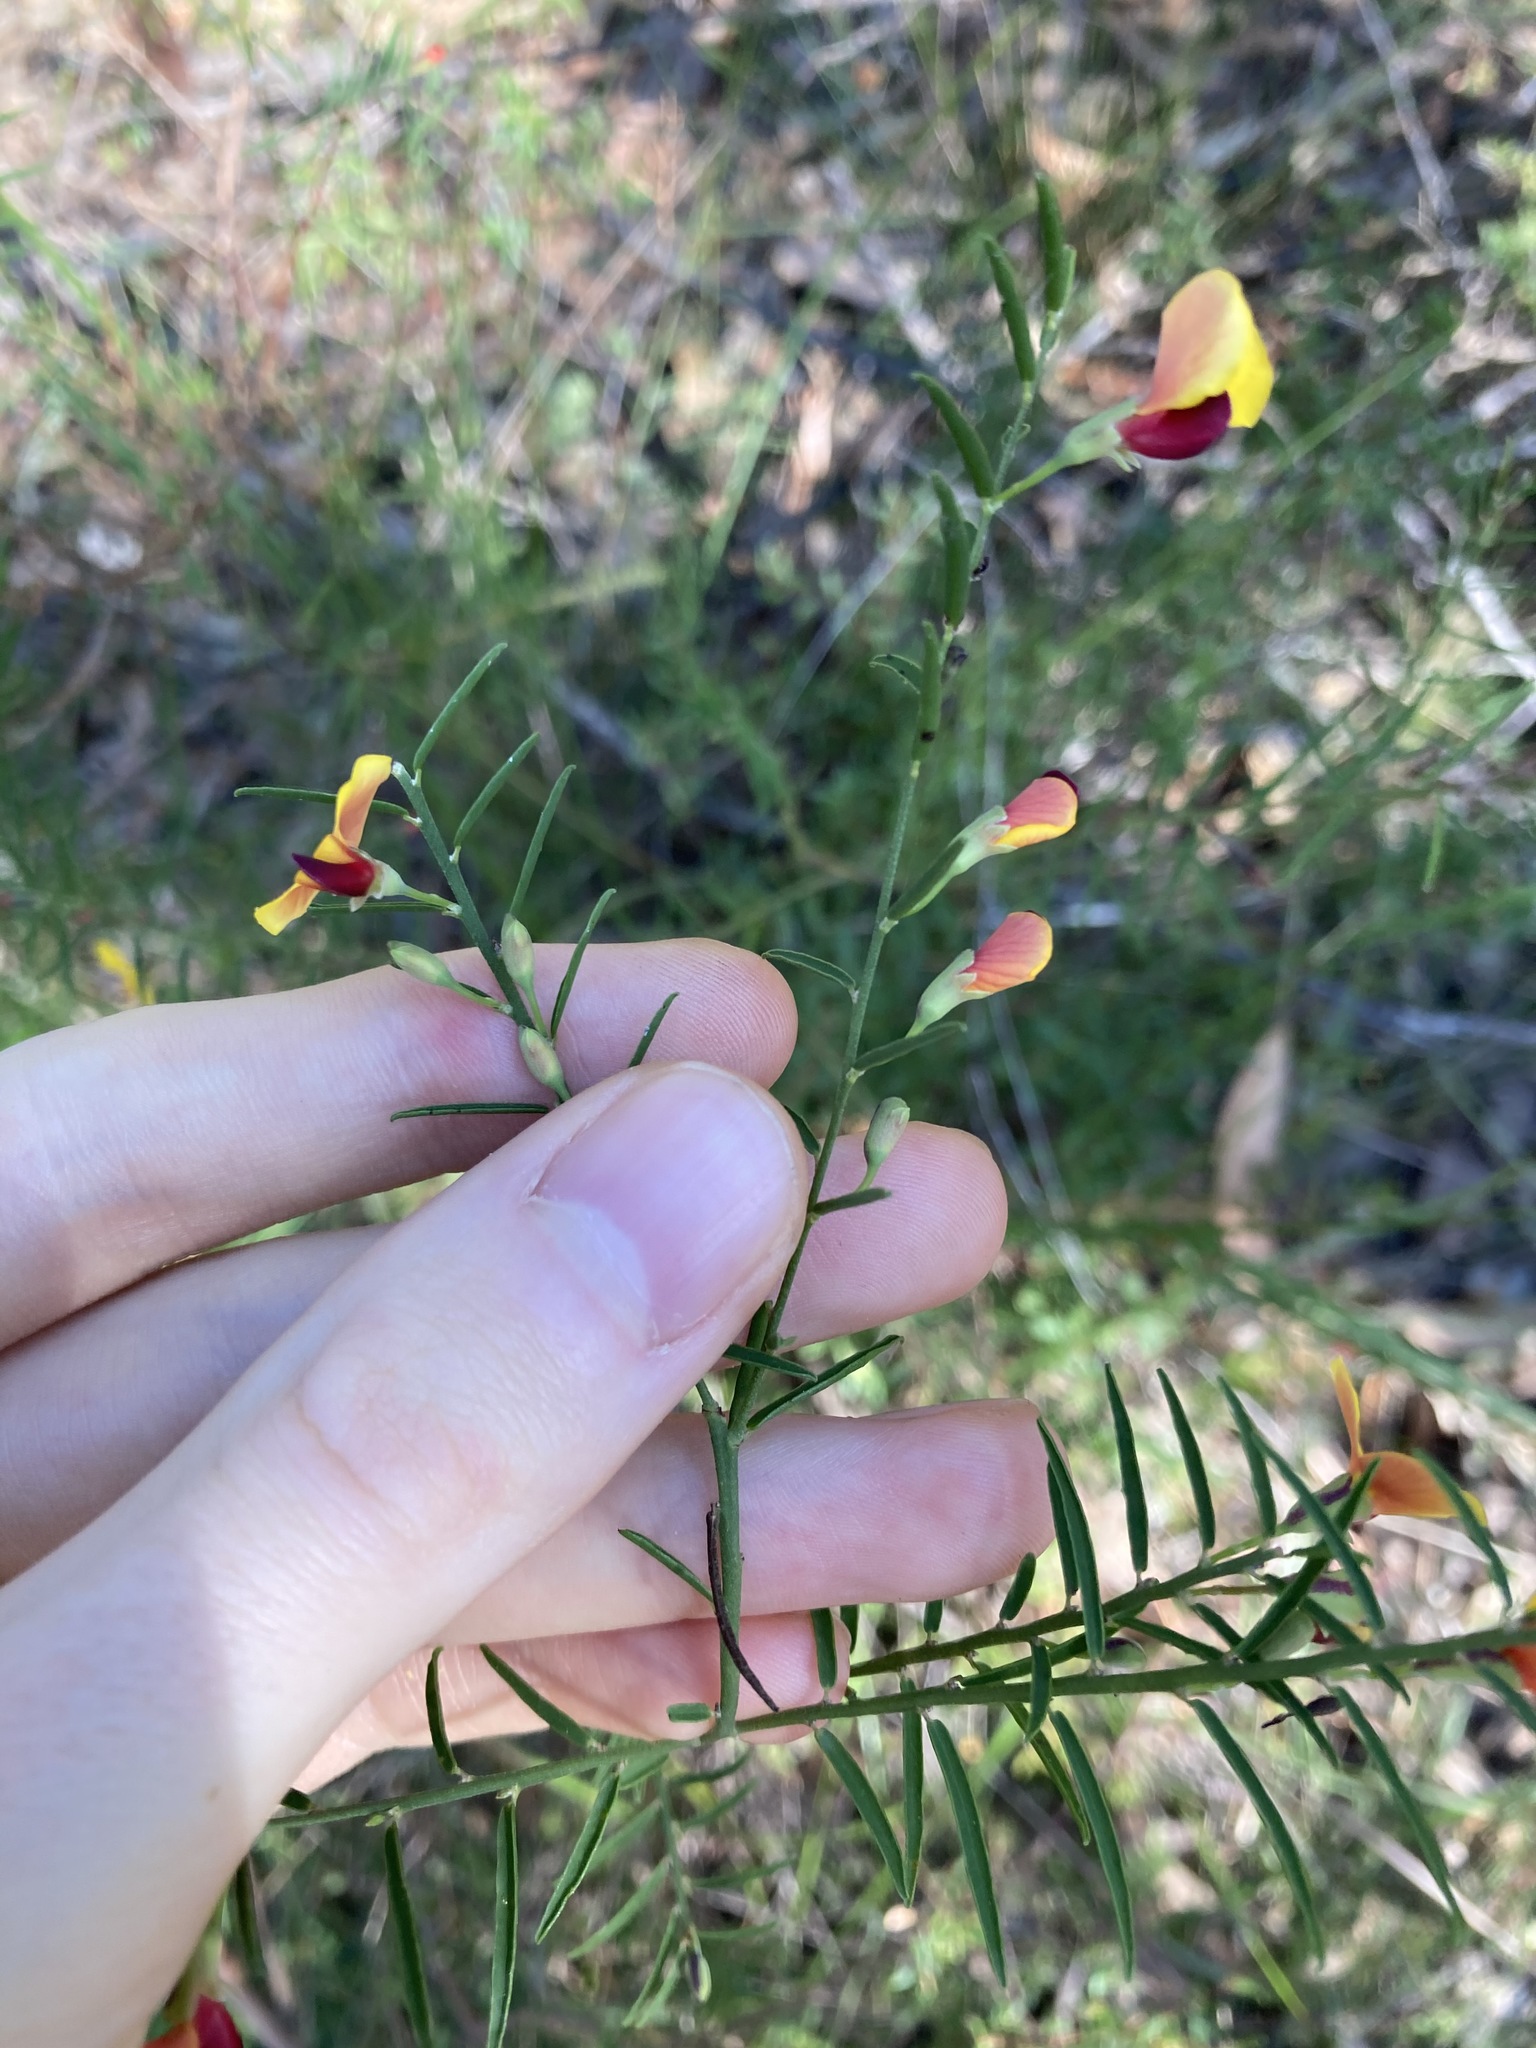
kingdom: Plantae
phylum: Tracheophyta
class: Magnoliopsida
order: Fabales
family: Fabaceae
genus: Bossiaea
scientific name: Bossiaea heterophylla
